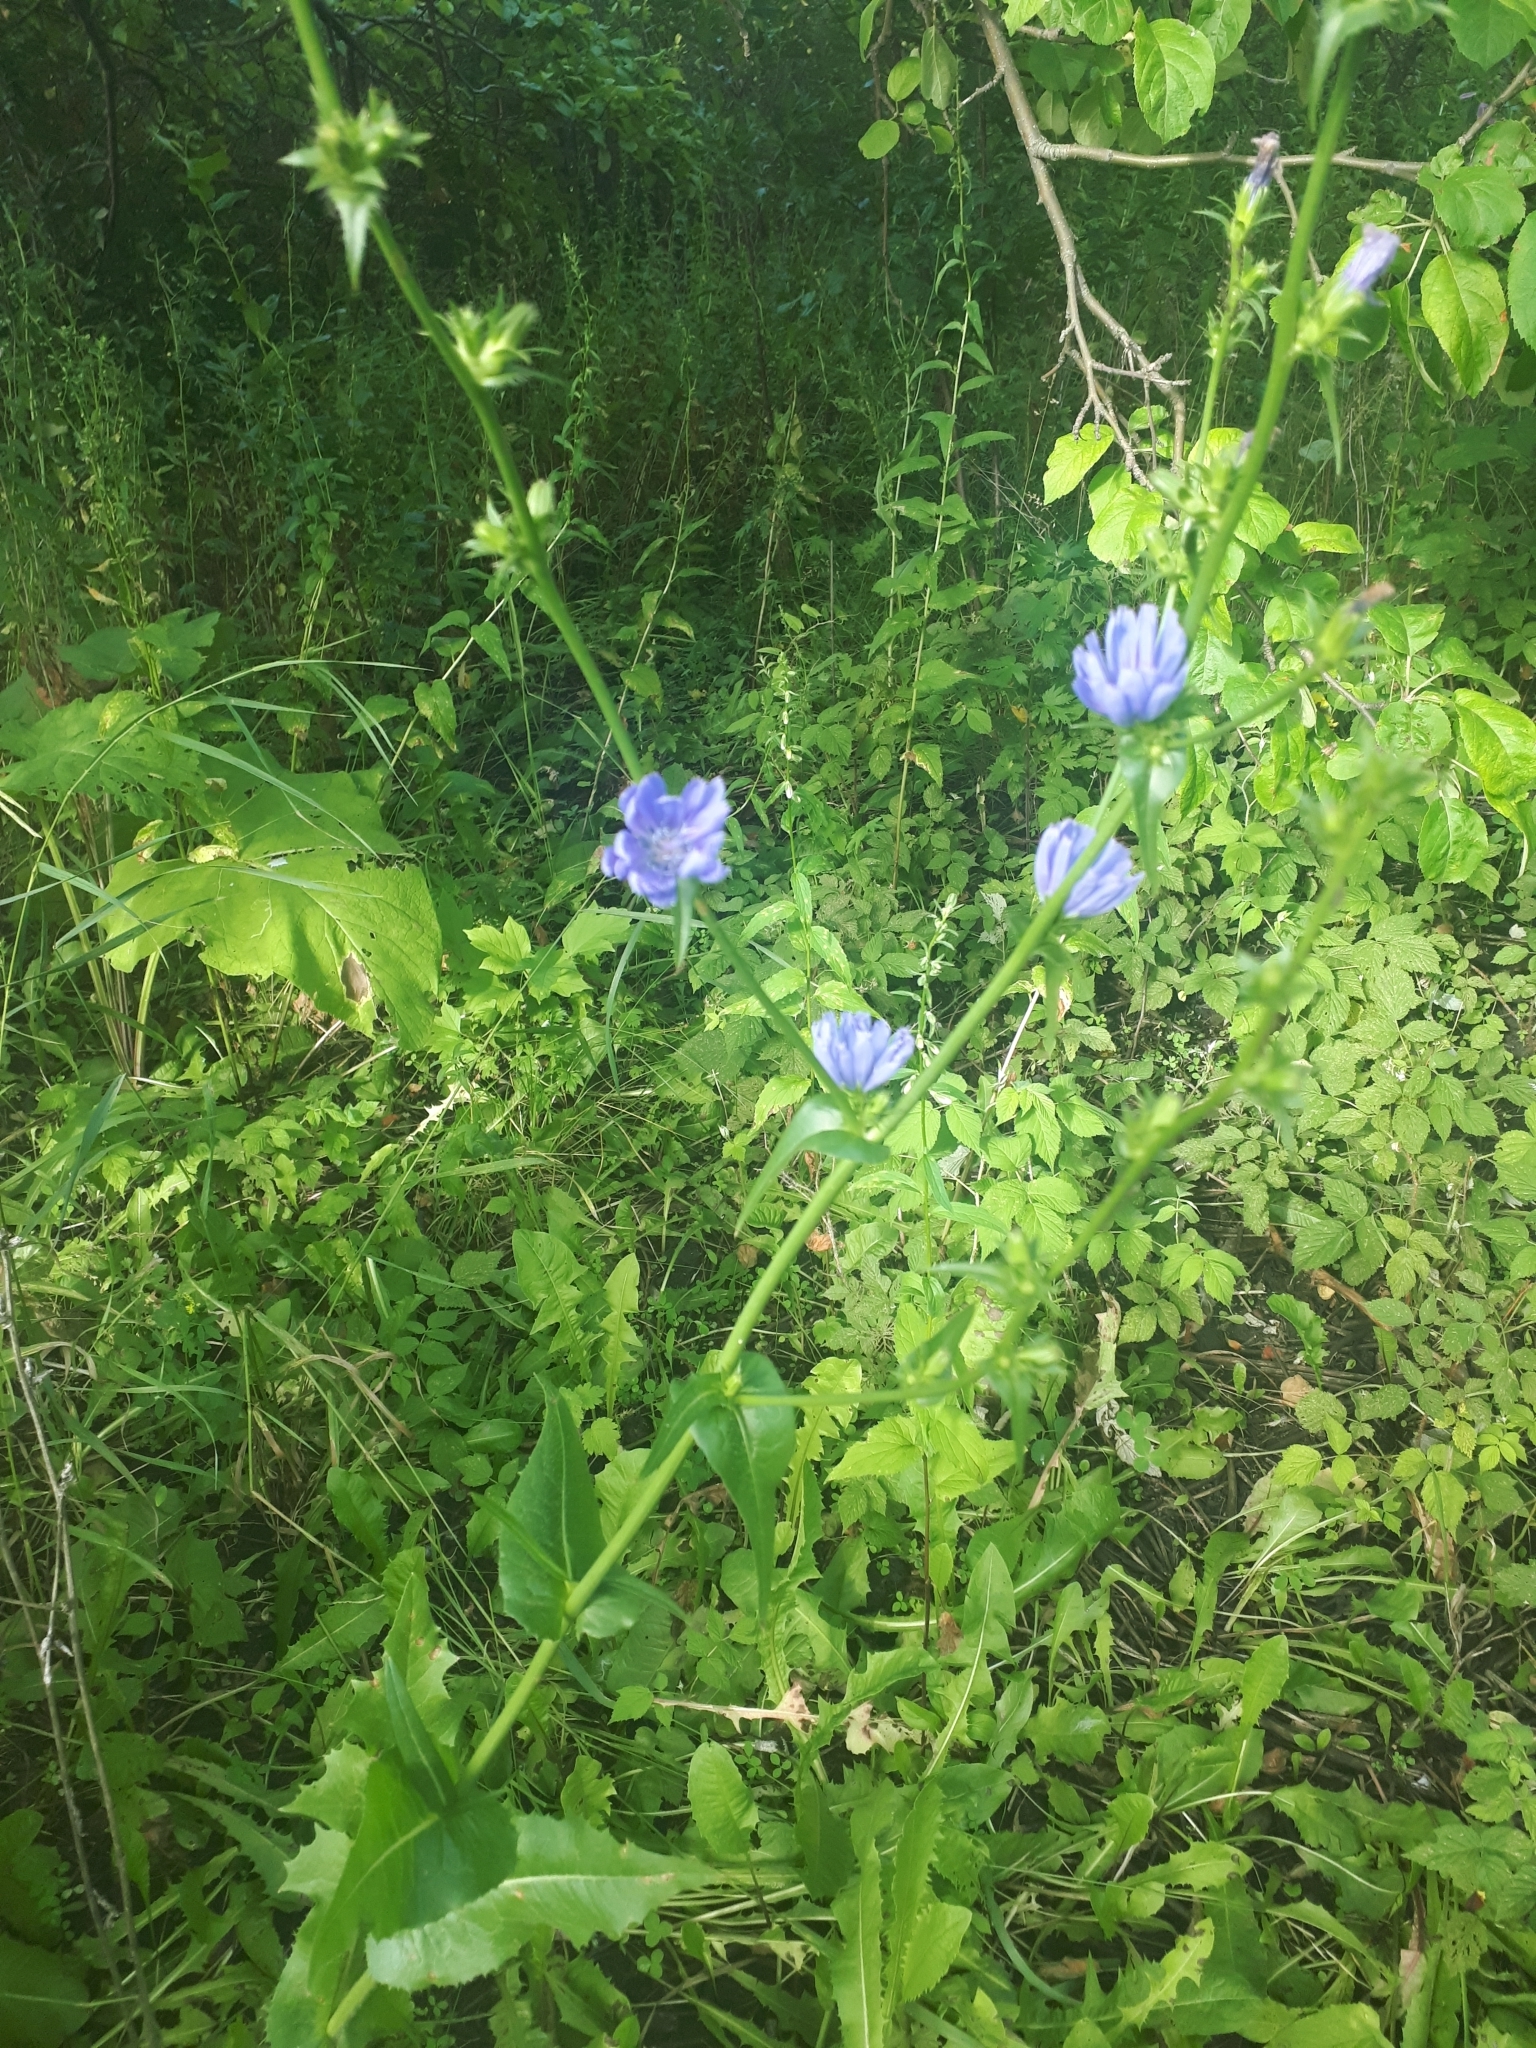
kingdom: Plantae
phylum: Tracheophyta
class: Magnoliopsida
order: Asterales
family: Asteraceae
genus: Cichorium
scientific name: Cichorium intybus
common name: Chicory
